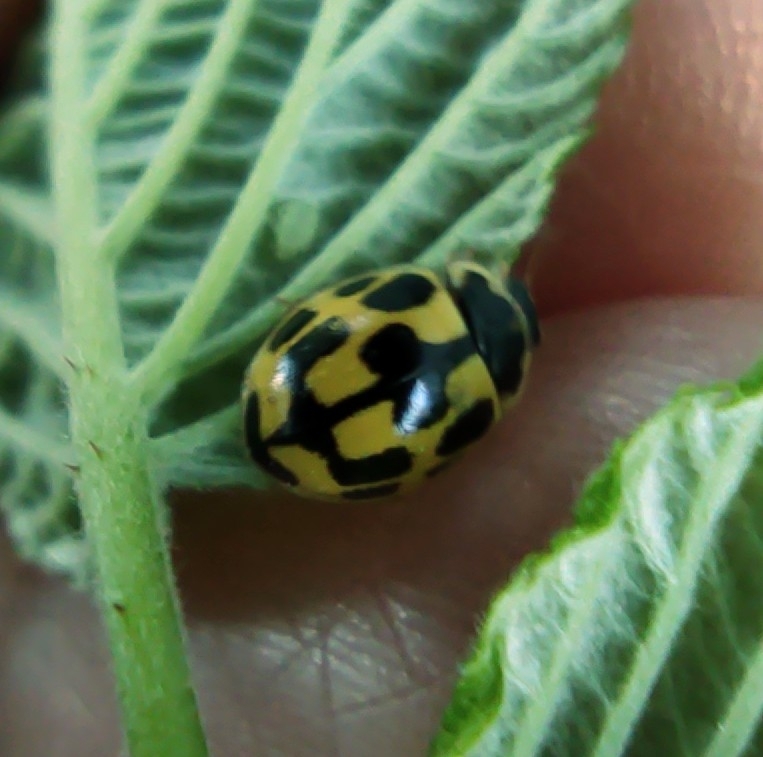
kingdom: Animalia
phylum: Arthropoda
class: Insecta
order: Coleoptera
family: Coccinellidae
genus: Propylaea
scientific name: Propylaea quatuordecimpunctata
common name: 14-spotted ladybird beetle
